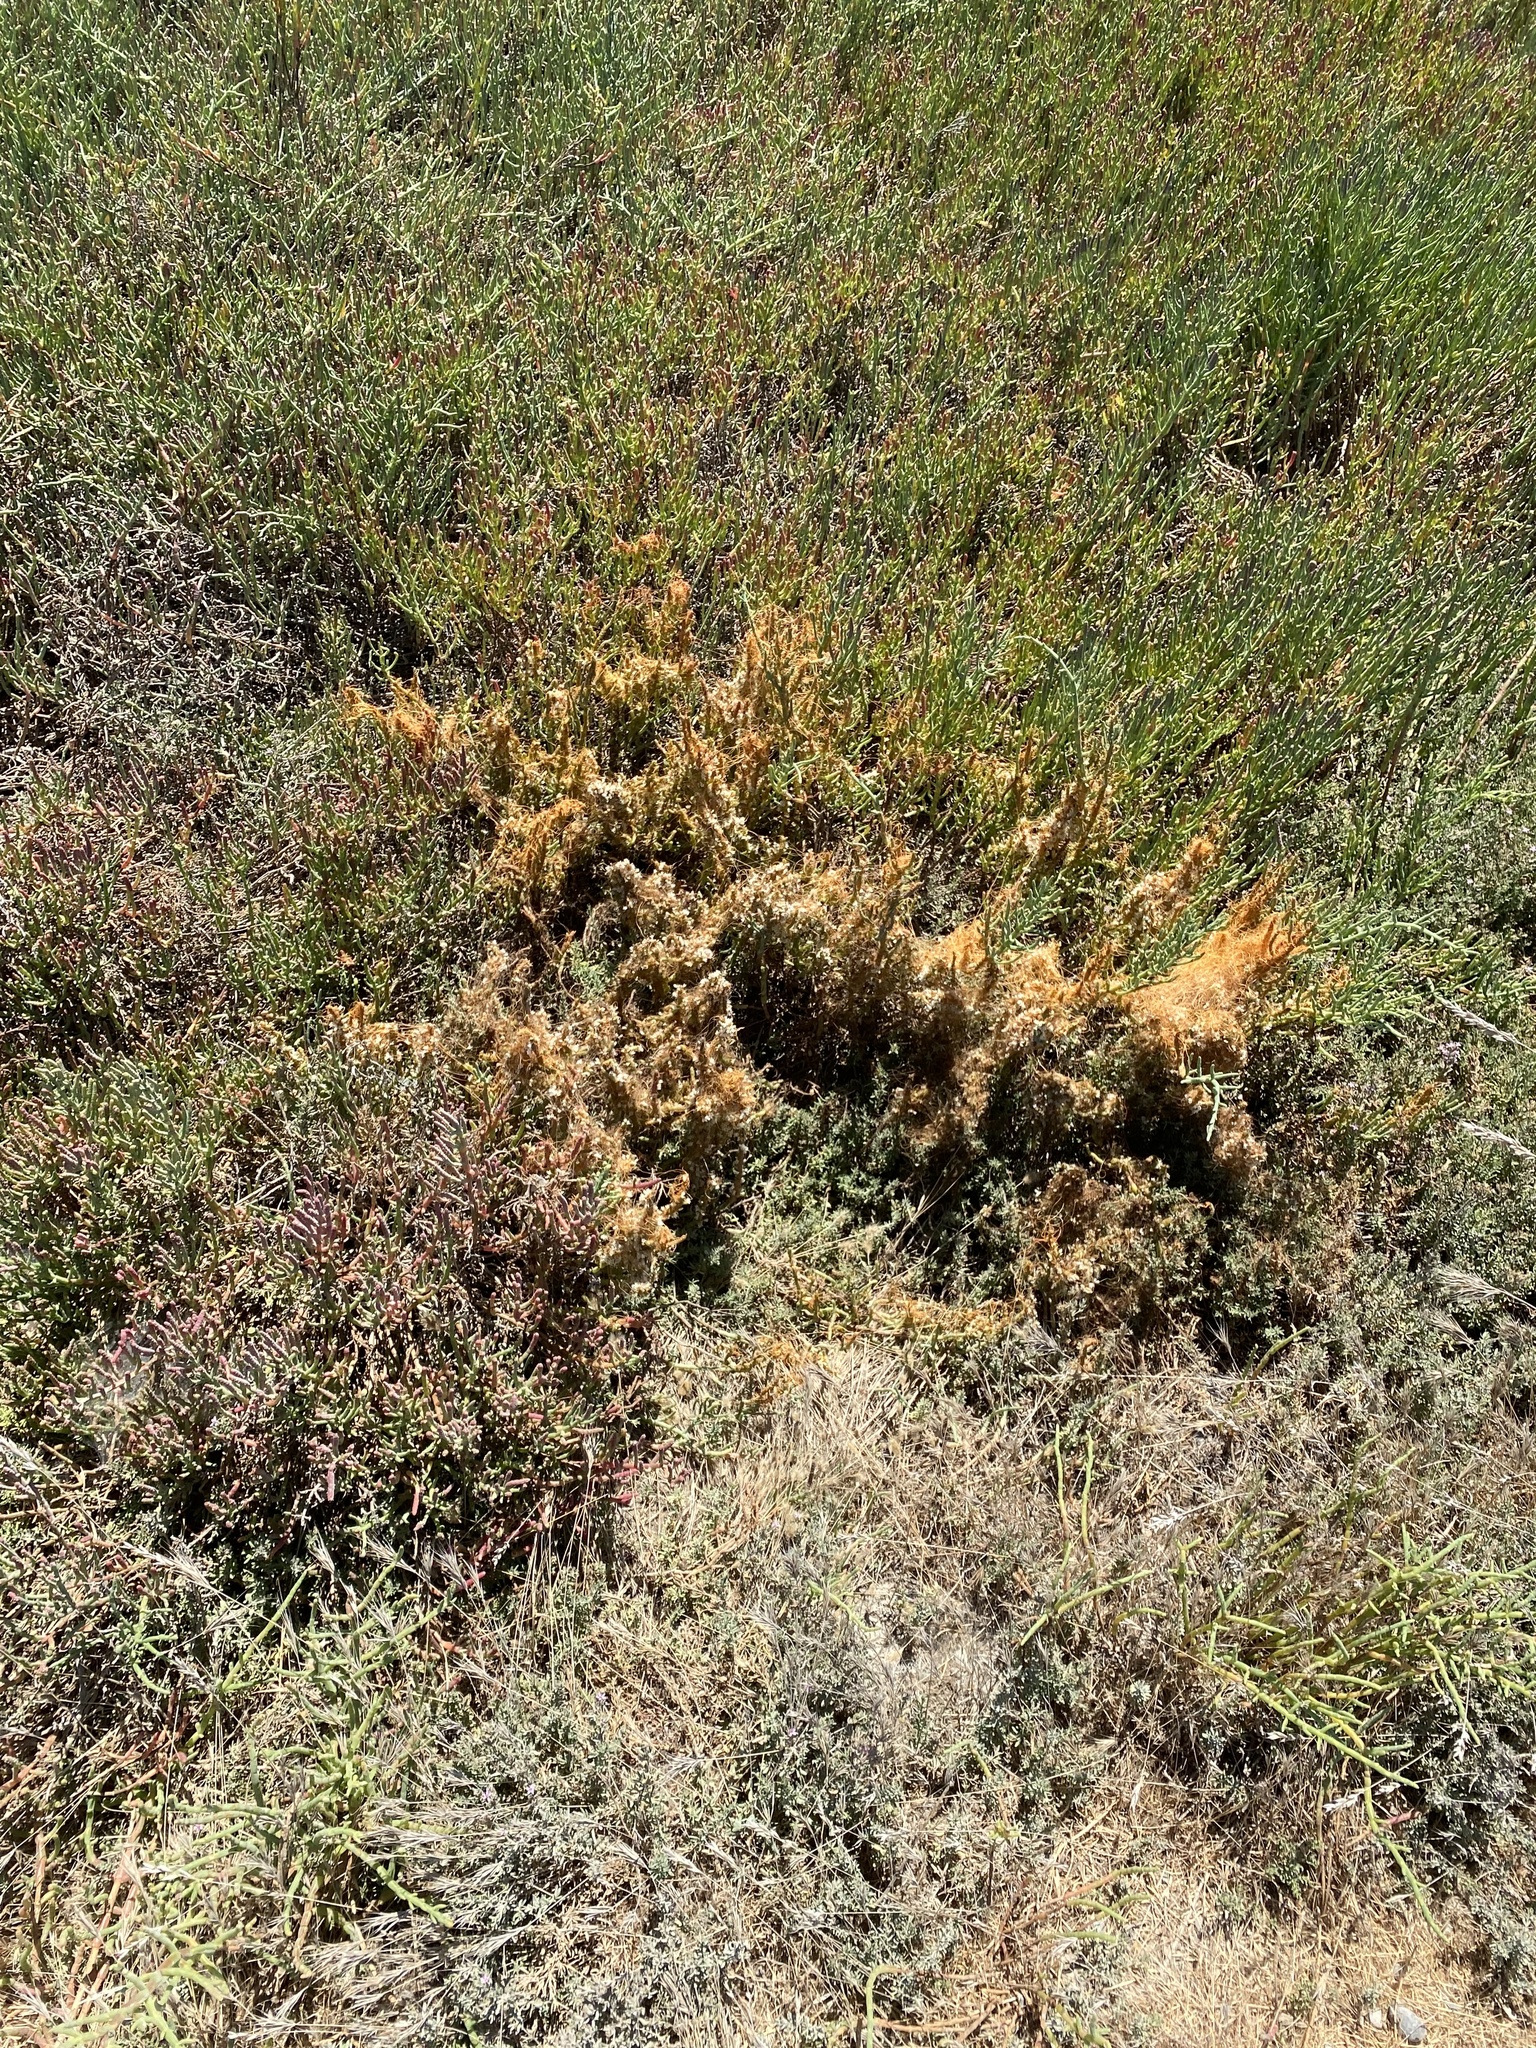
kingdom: Plantae
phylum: Tracheophyta
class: Magnoliopsida
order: Solanales
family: Convolvulaceae
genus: Cuscuta
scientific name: Cuscuta pacifica
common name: Large saltmarsh dodder
